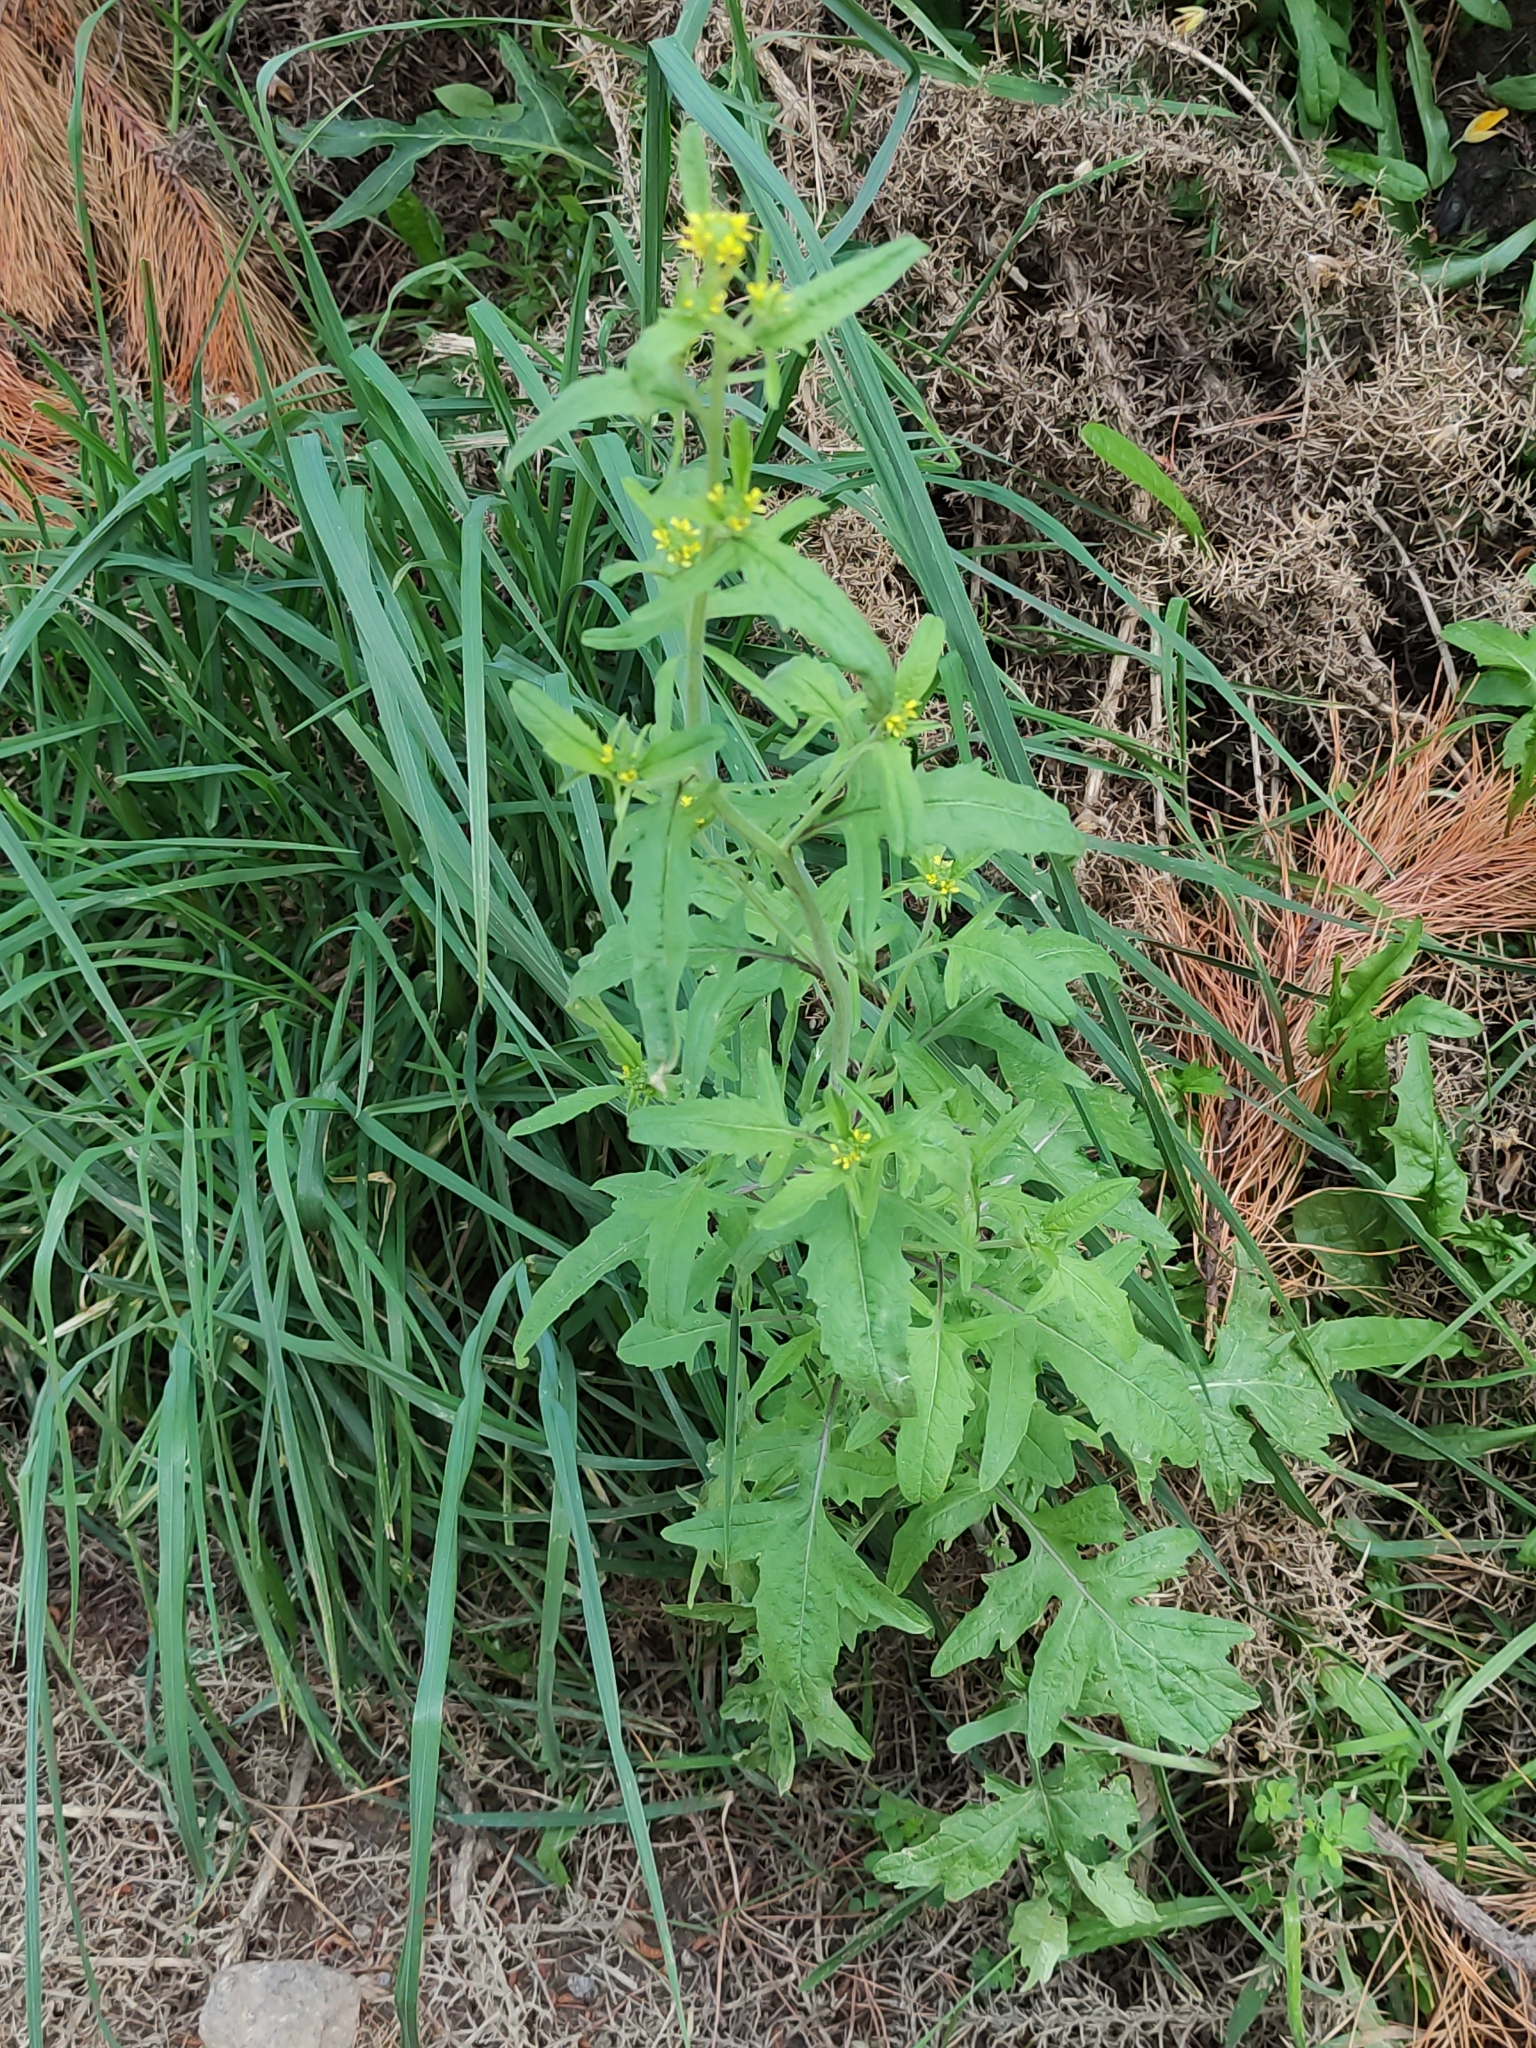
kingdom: Plantae
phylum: Tracheophyta
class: Magnoliopsida
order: Brassicales
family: Brassicaceae
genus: Sisymbrium
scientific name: Sisymbrium officinale
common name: Hedge mustard
